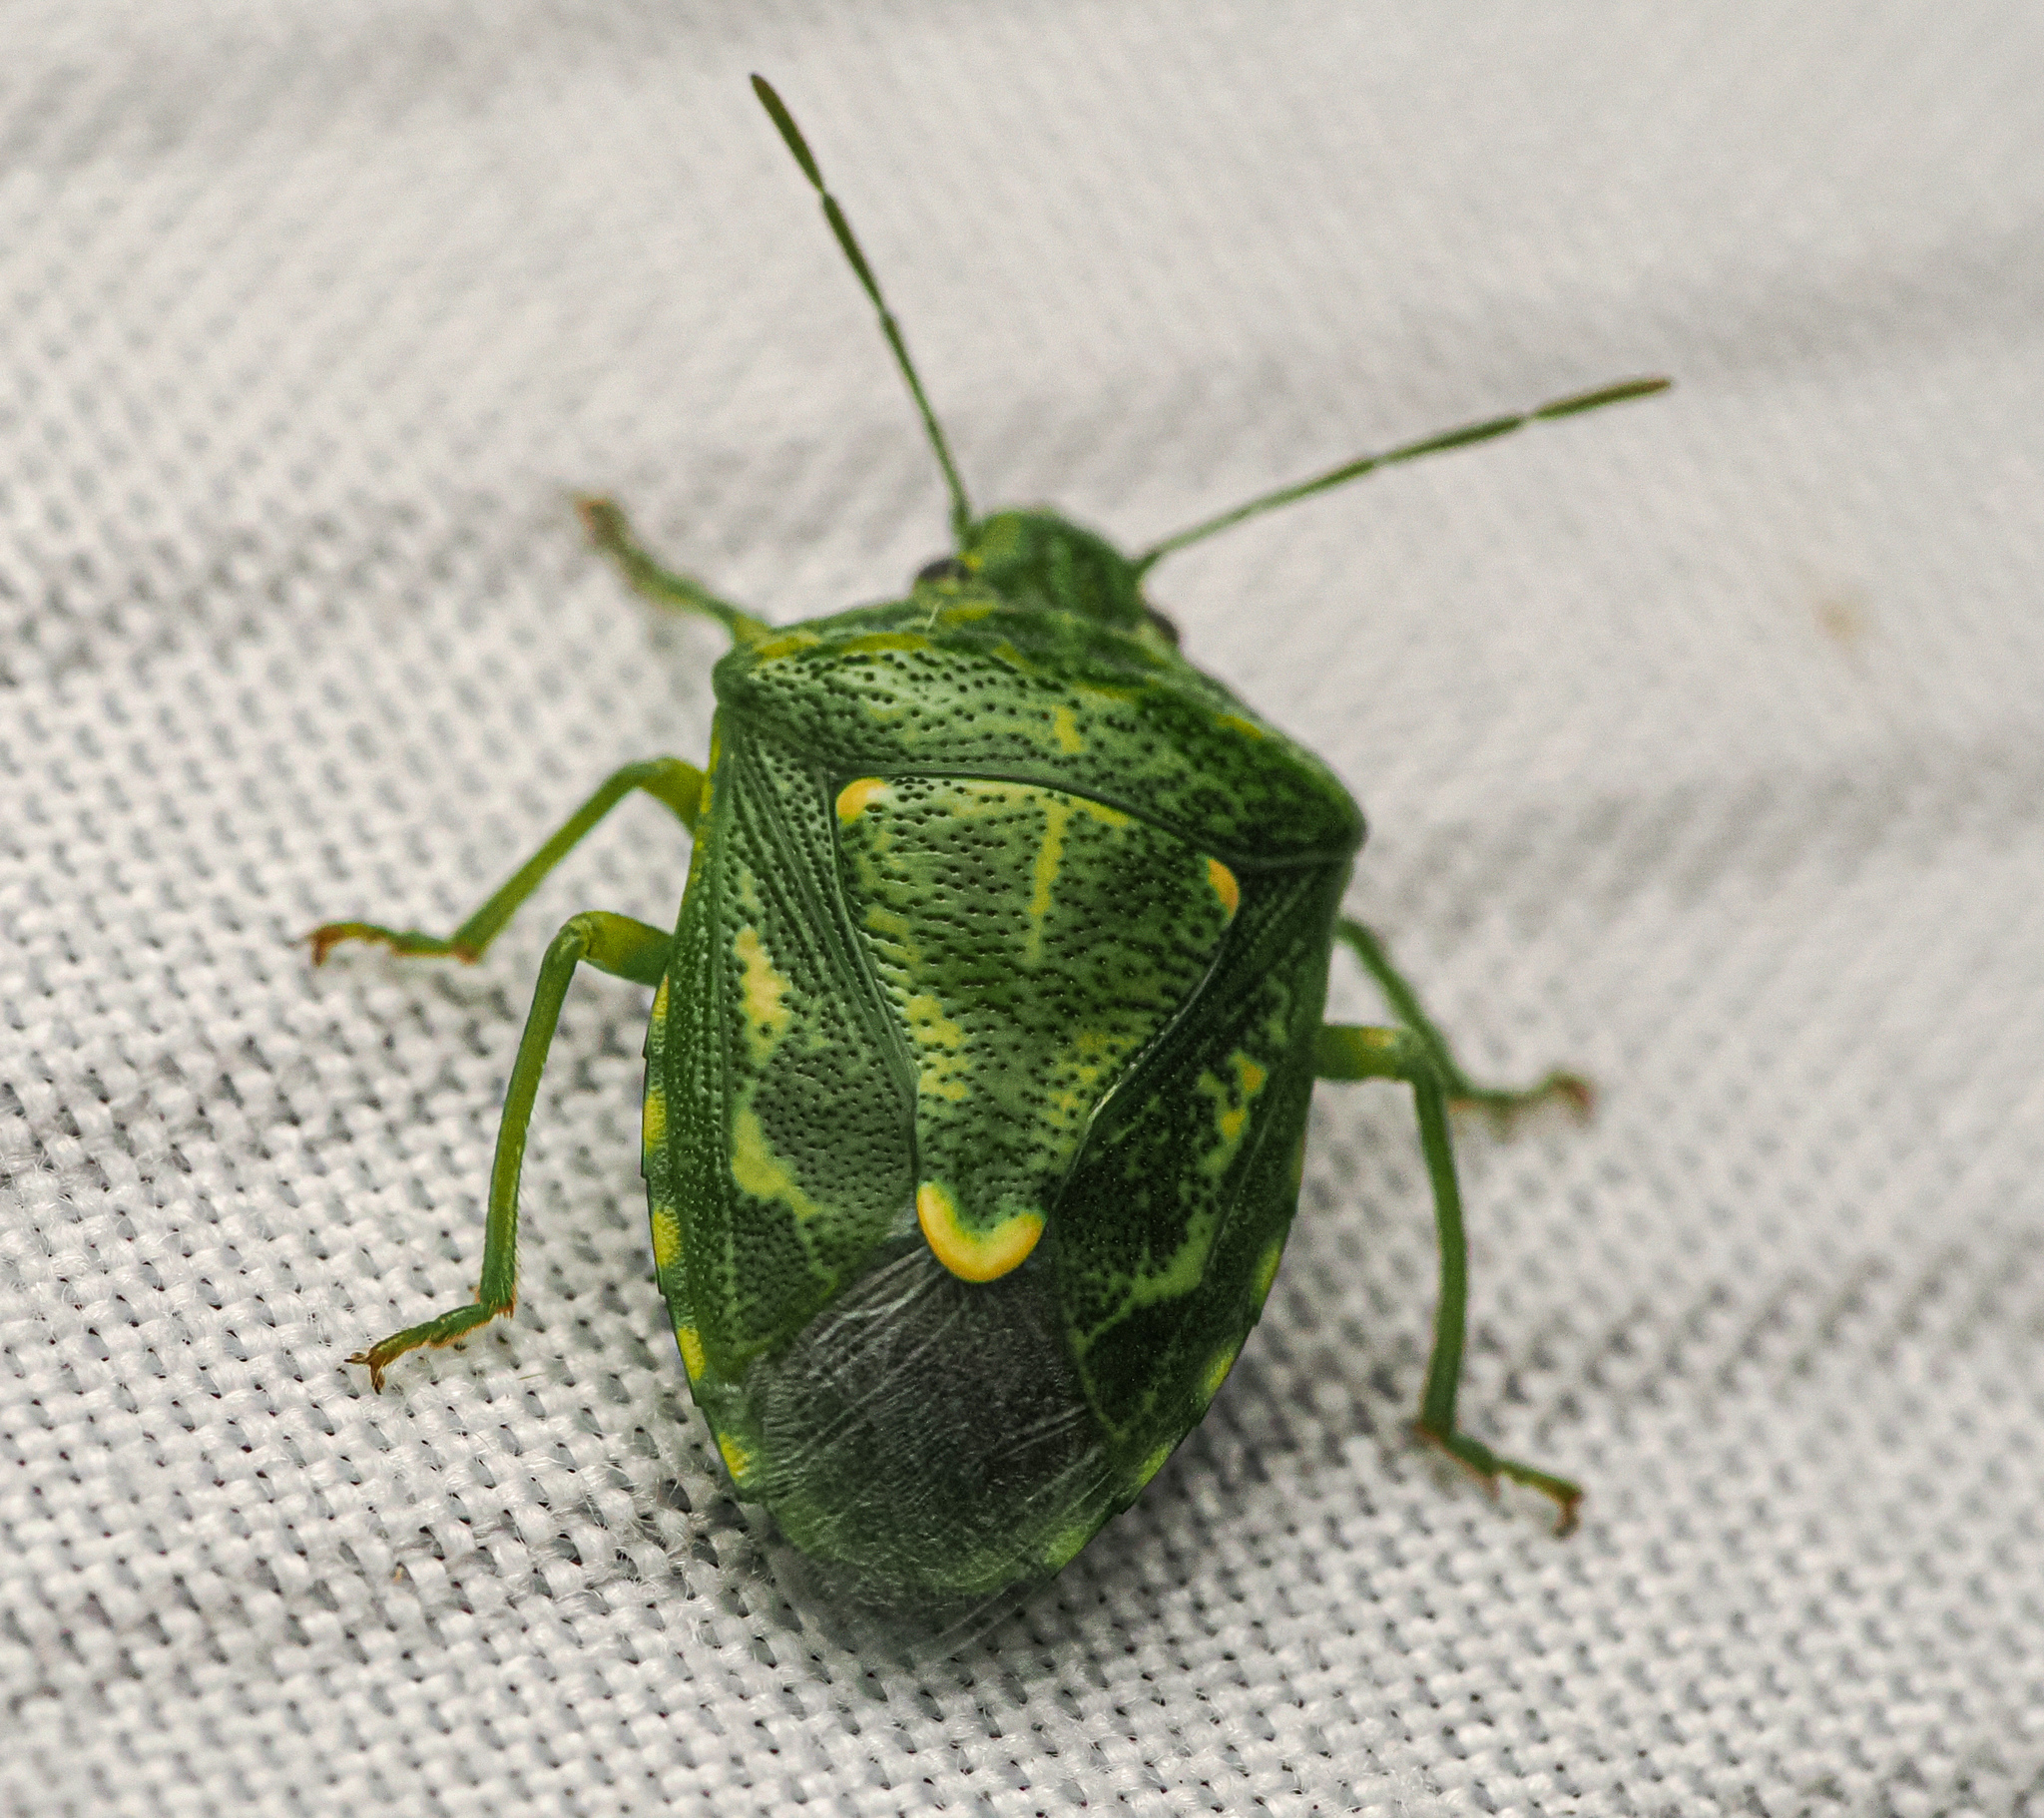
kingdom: Animalia
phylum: Arthropoda
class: Insecta
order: Hemiptera
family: Pentatomidae
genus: Banasa
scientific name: Banasa euchlora
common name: Cedar berry bug
